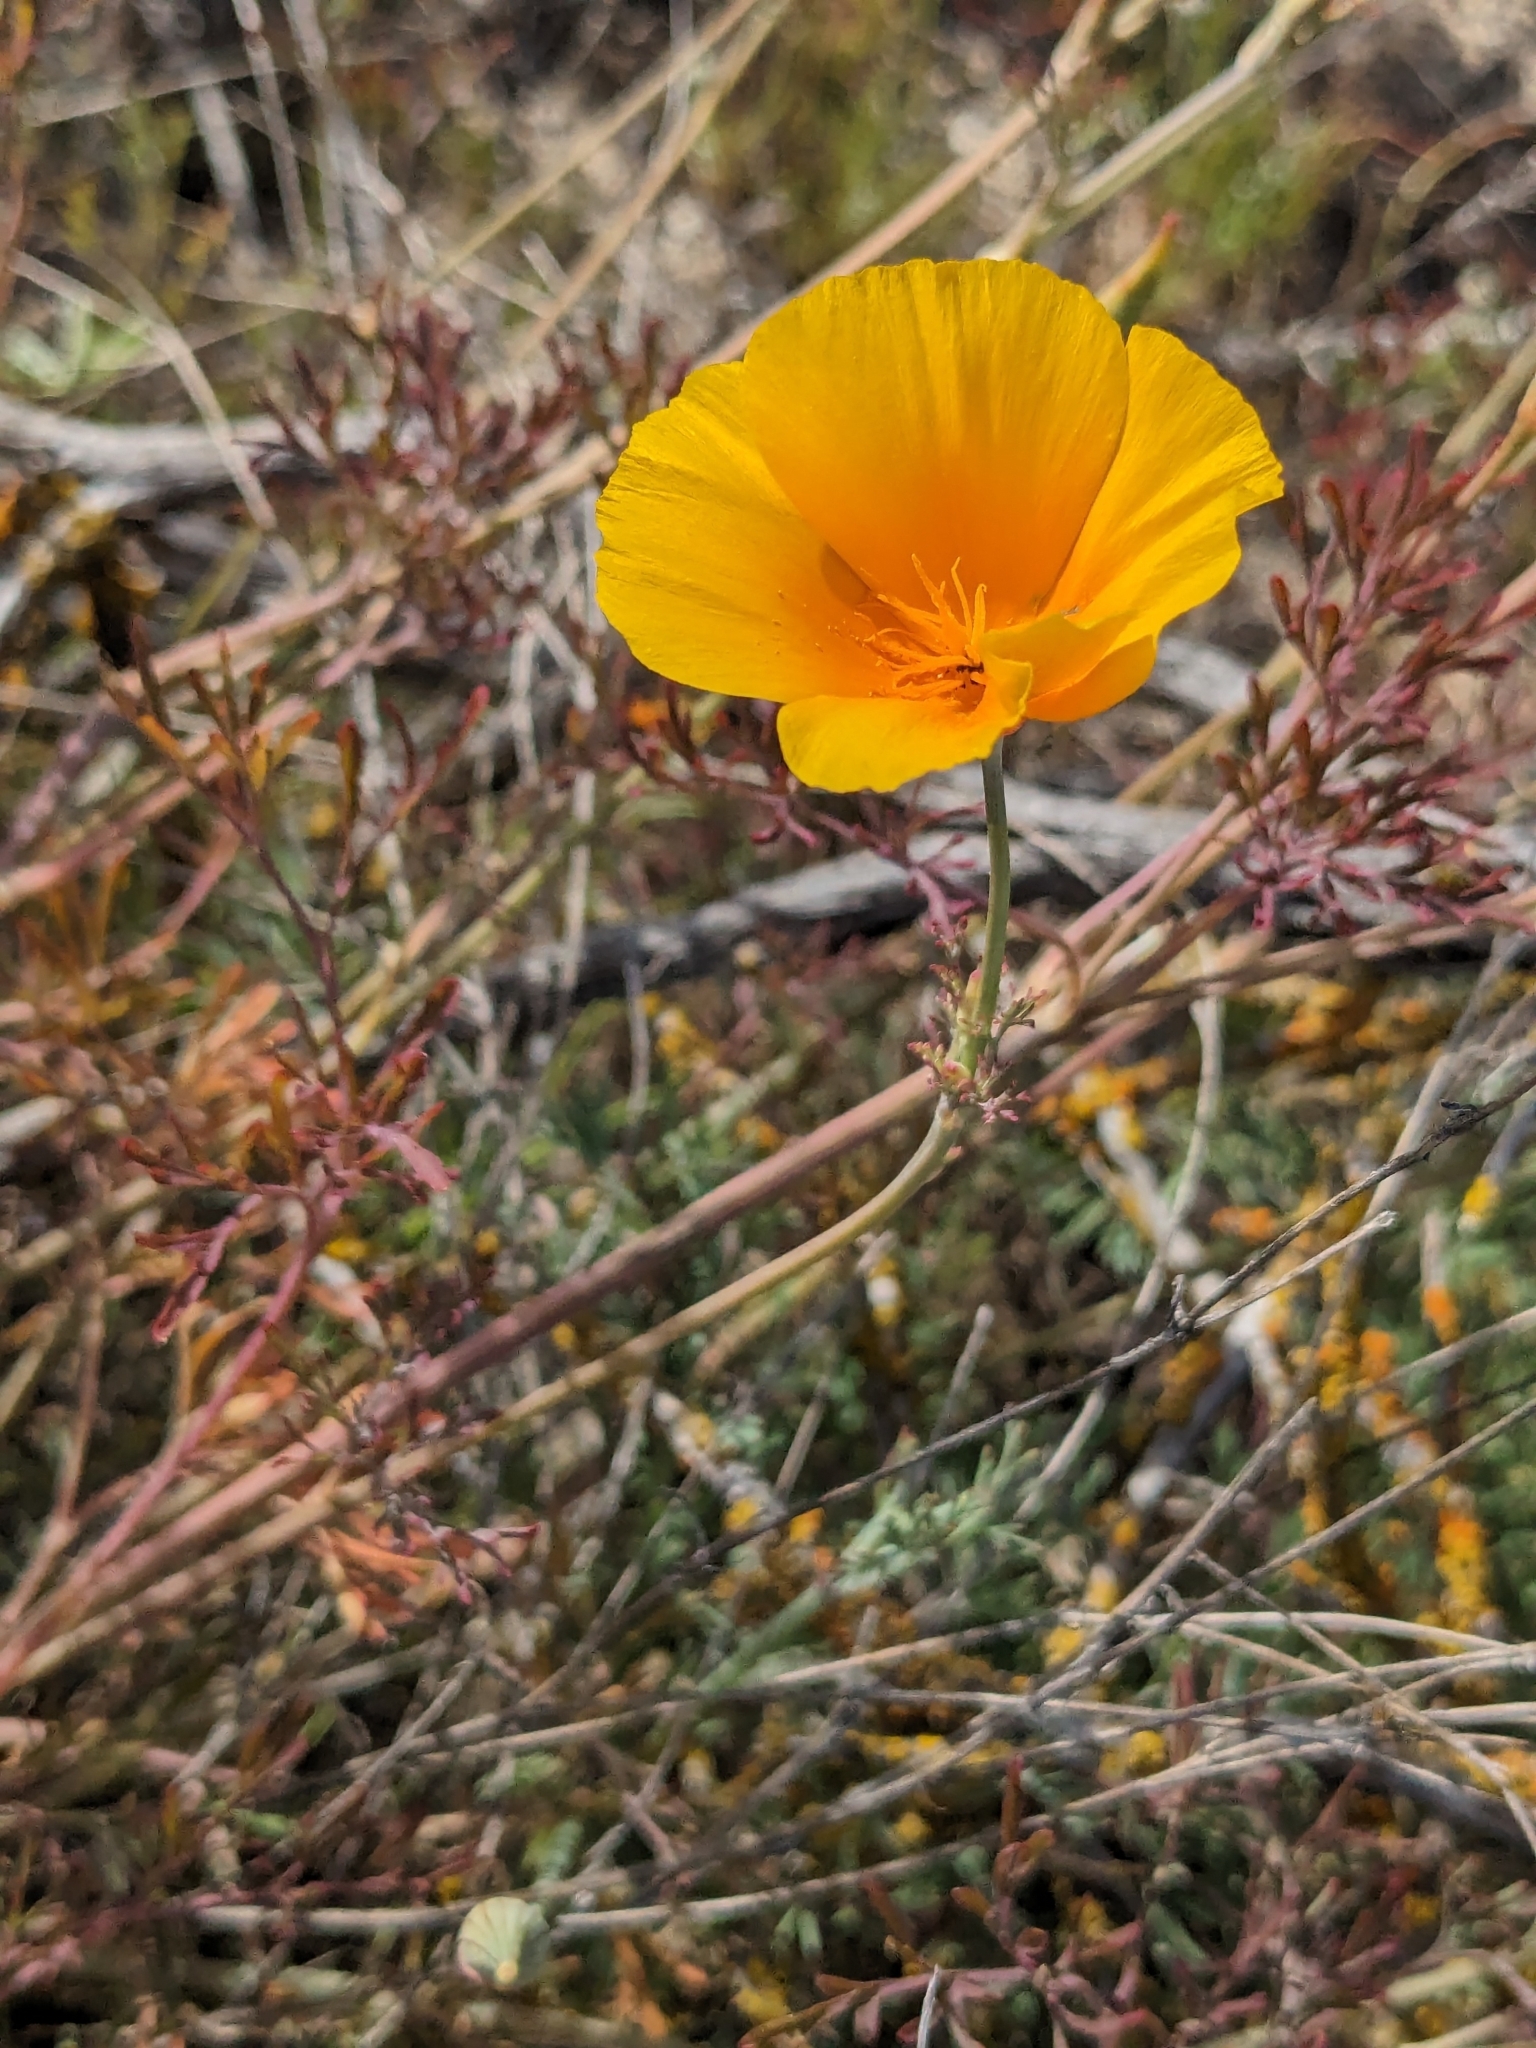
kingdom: Plantae
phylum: Tracheophyta
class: Magnoliopsida
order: Ranunculales
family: Papaveraceae
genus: Eschscholzia
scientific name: Eschscholzia californica
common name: California poppy
